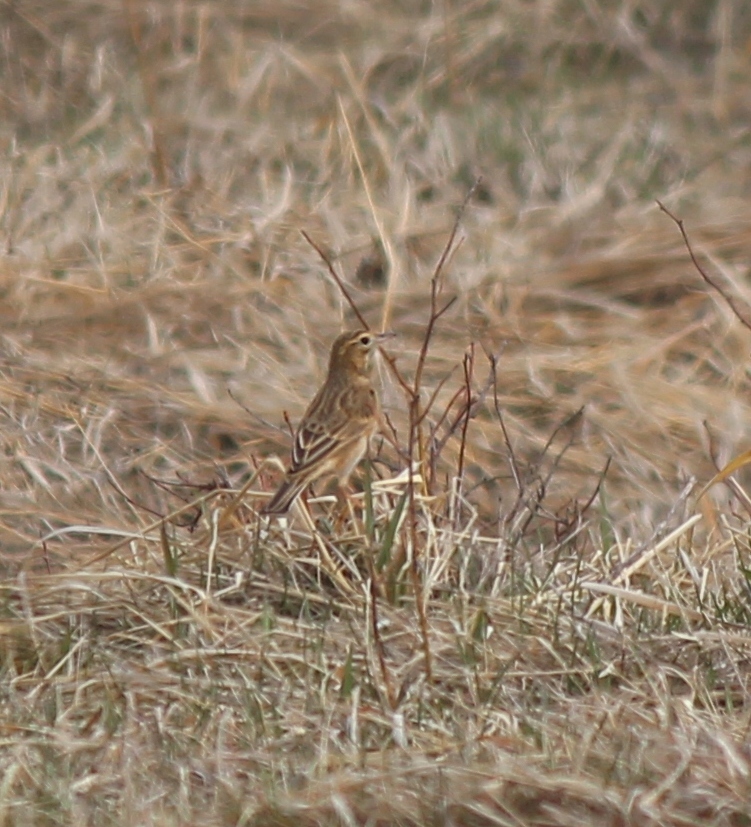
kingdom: Animalia
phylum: Chordata
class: Aves
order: Passeriformes
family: Motacillidae
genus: Anthus
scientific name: Anthus richardi
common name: Richard's pipit
